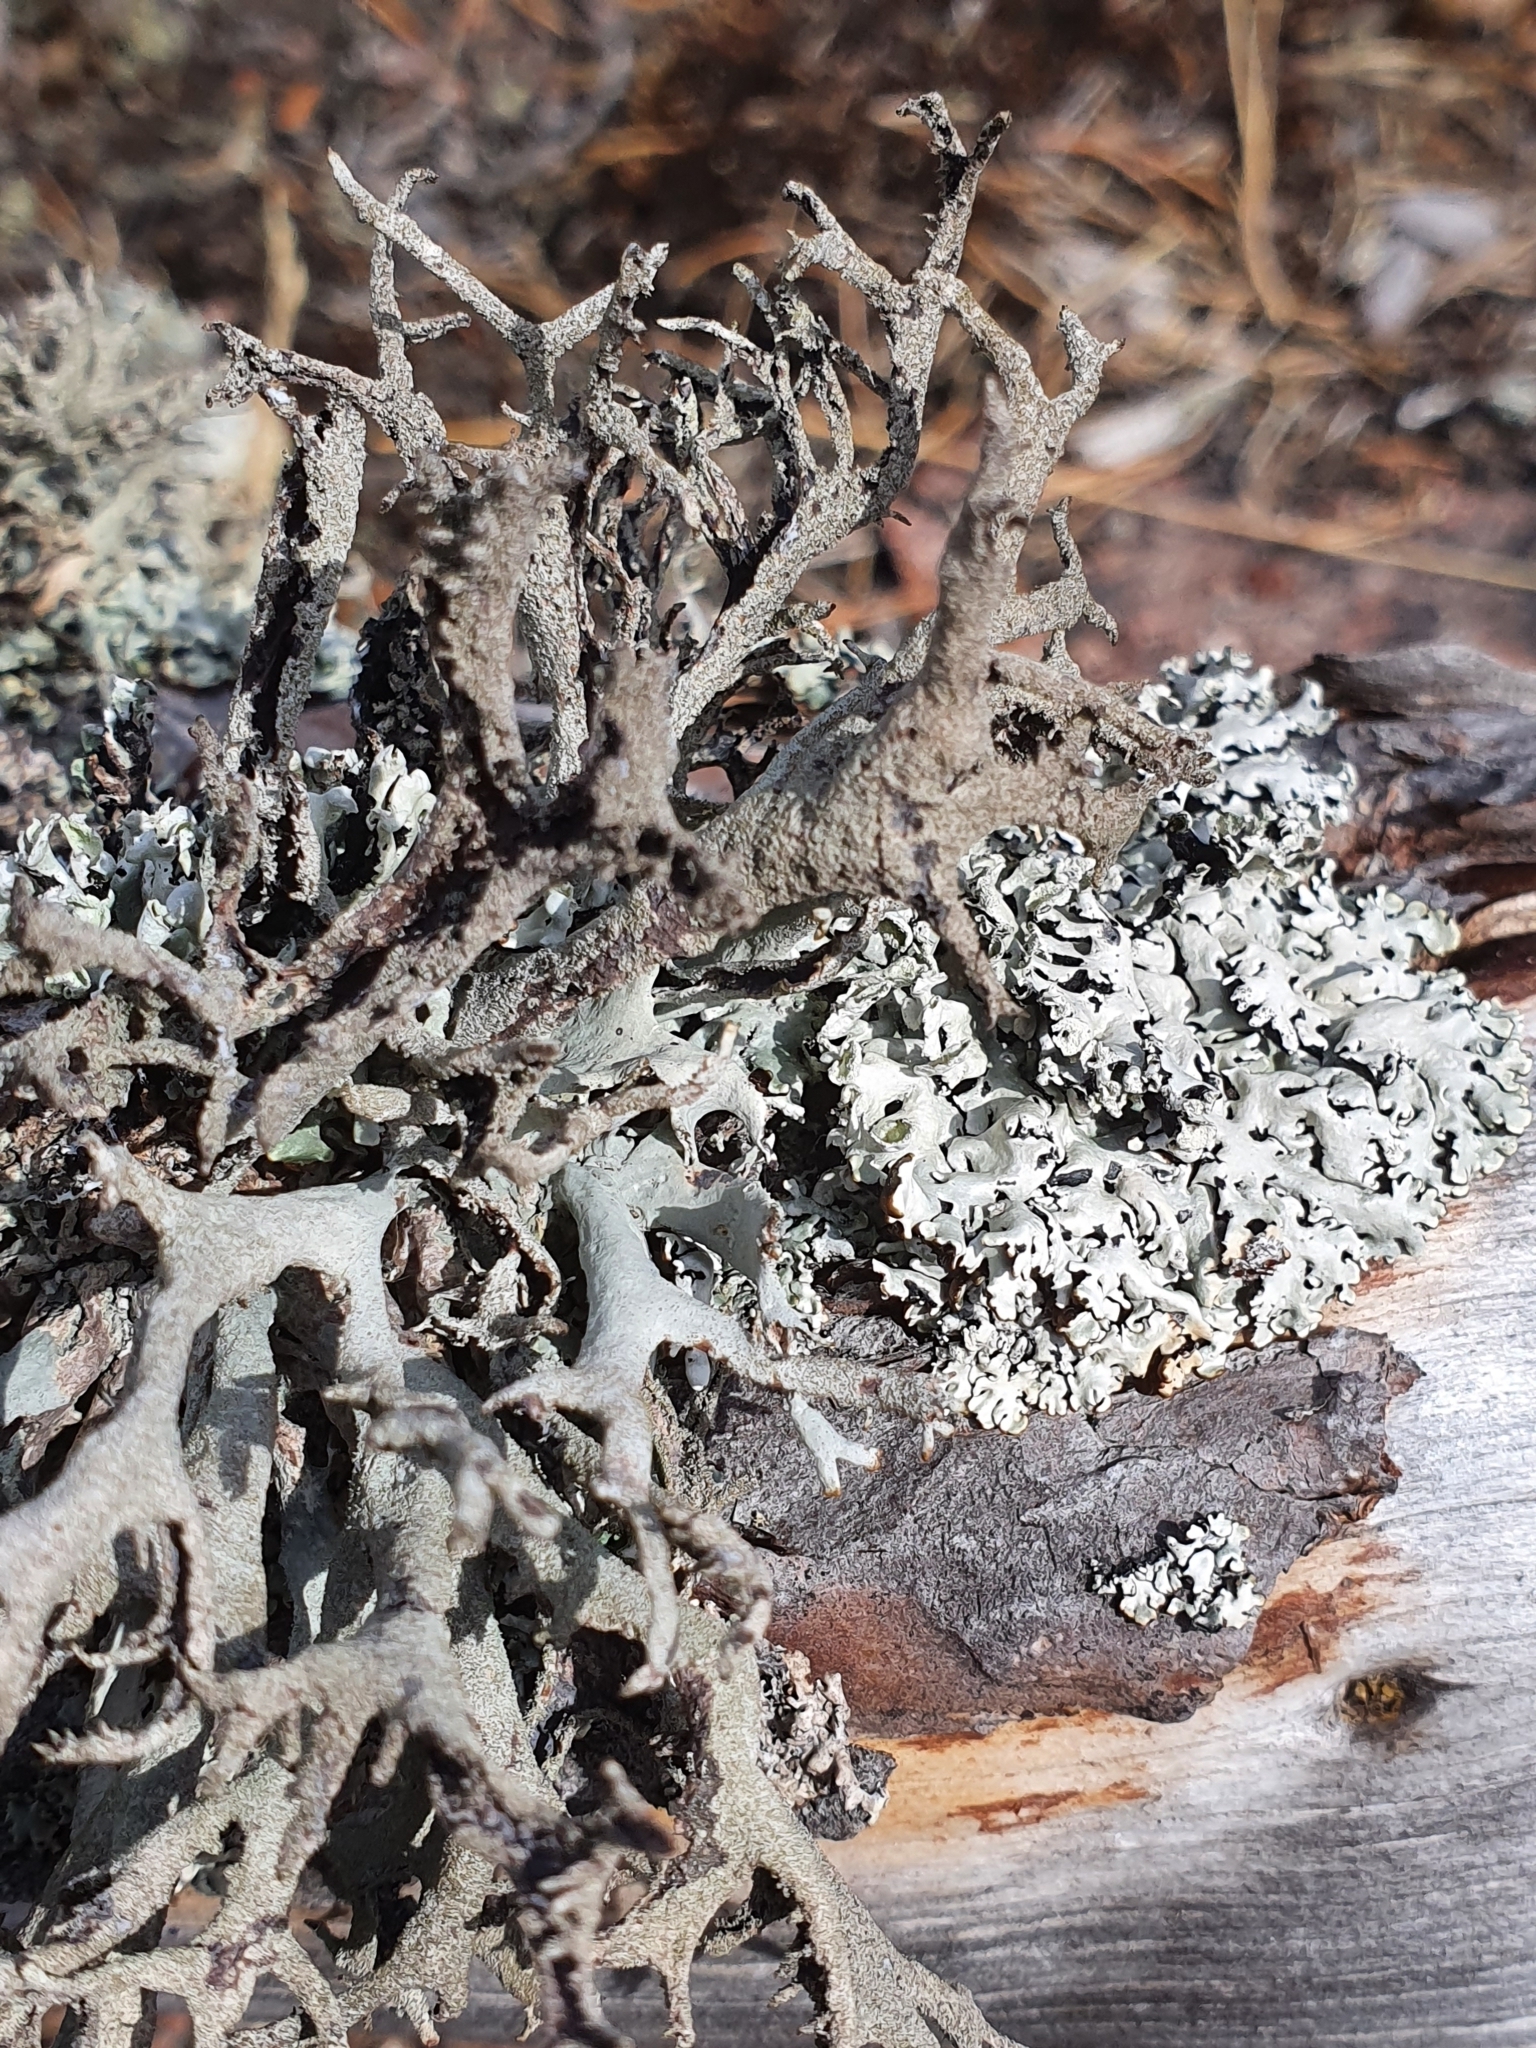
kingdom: Fungi
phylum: Ascomycota
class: Lecanoromycetes
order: Lecanorales
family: Parmeliaceae
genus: Hypogymnia
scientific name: Hypogymnia physodes
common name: Dark crottle
